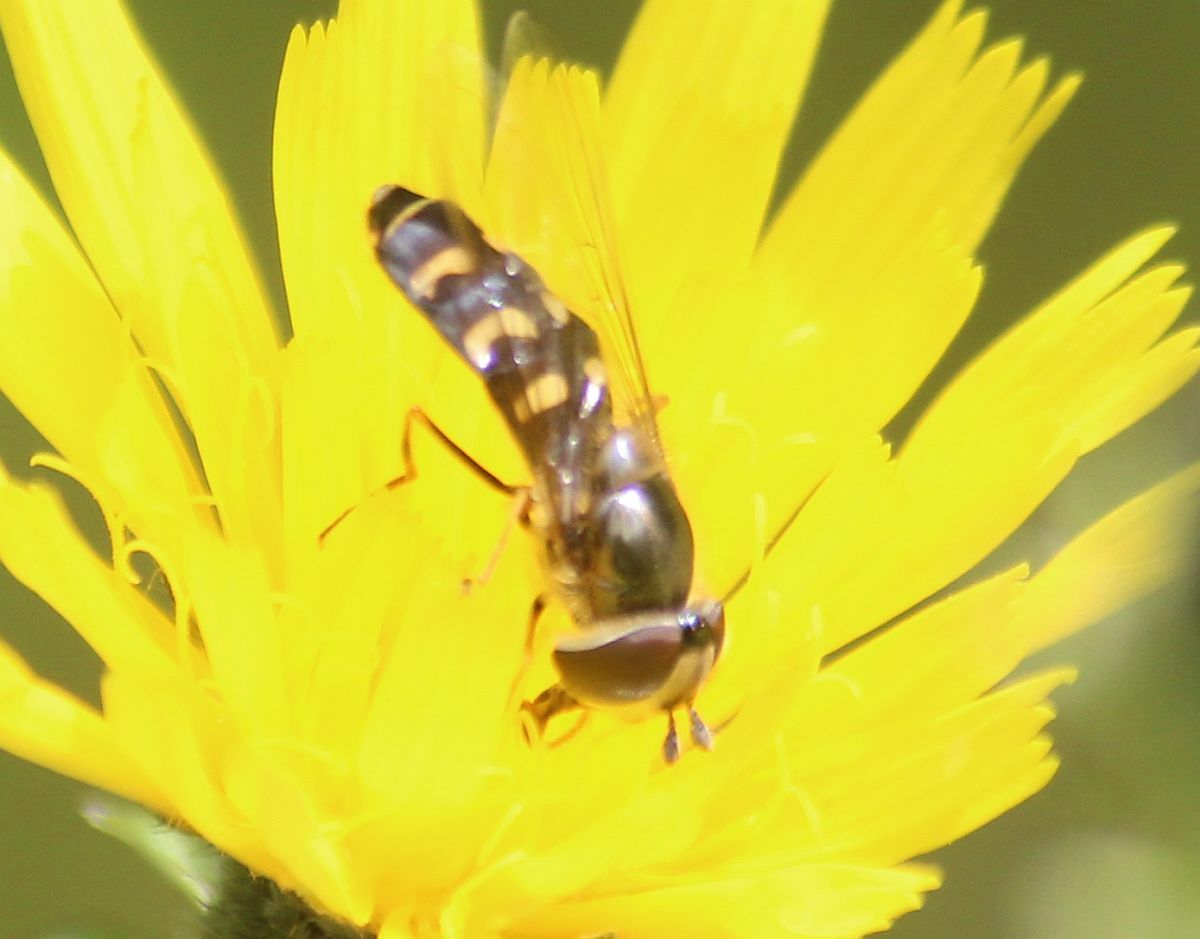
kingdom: Animalia
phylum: Arthropoda
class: Insecta
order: Diptera
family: Syrphidae
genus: Scaeva
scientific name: Scaeva selenitica
